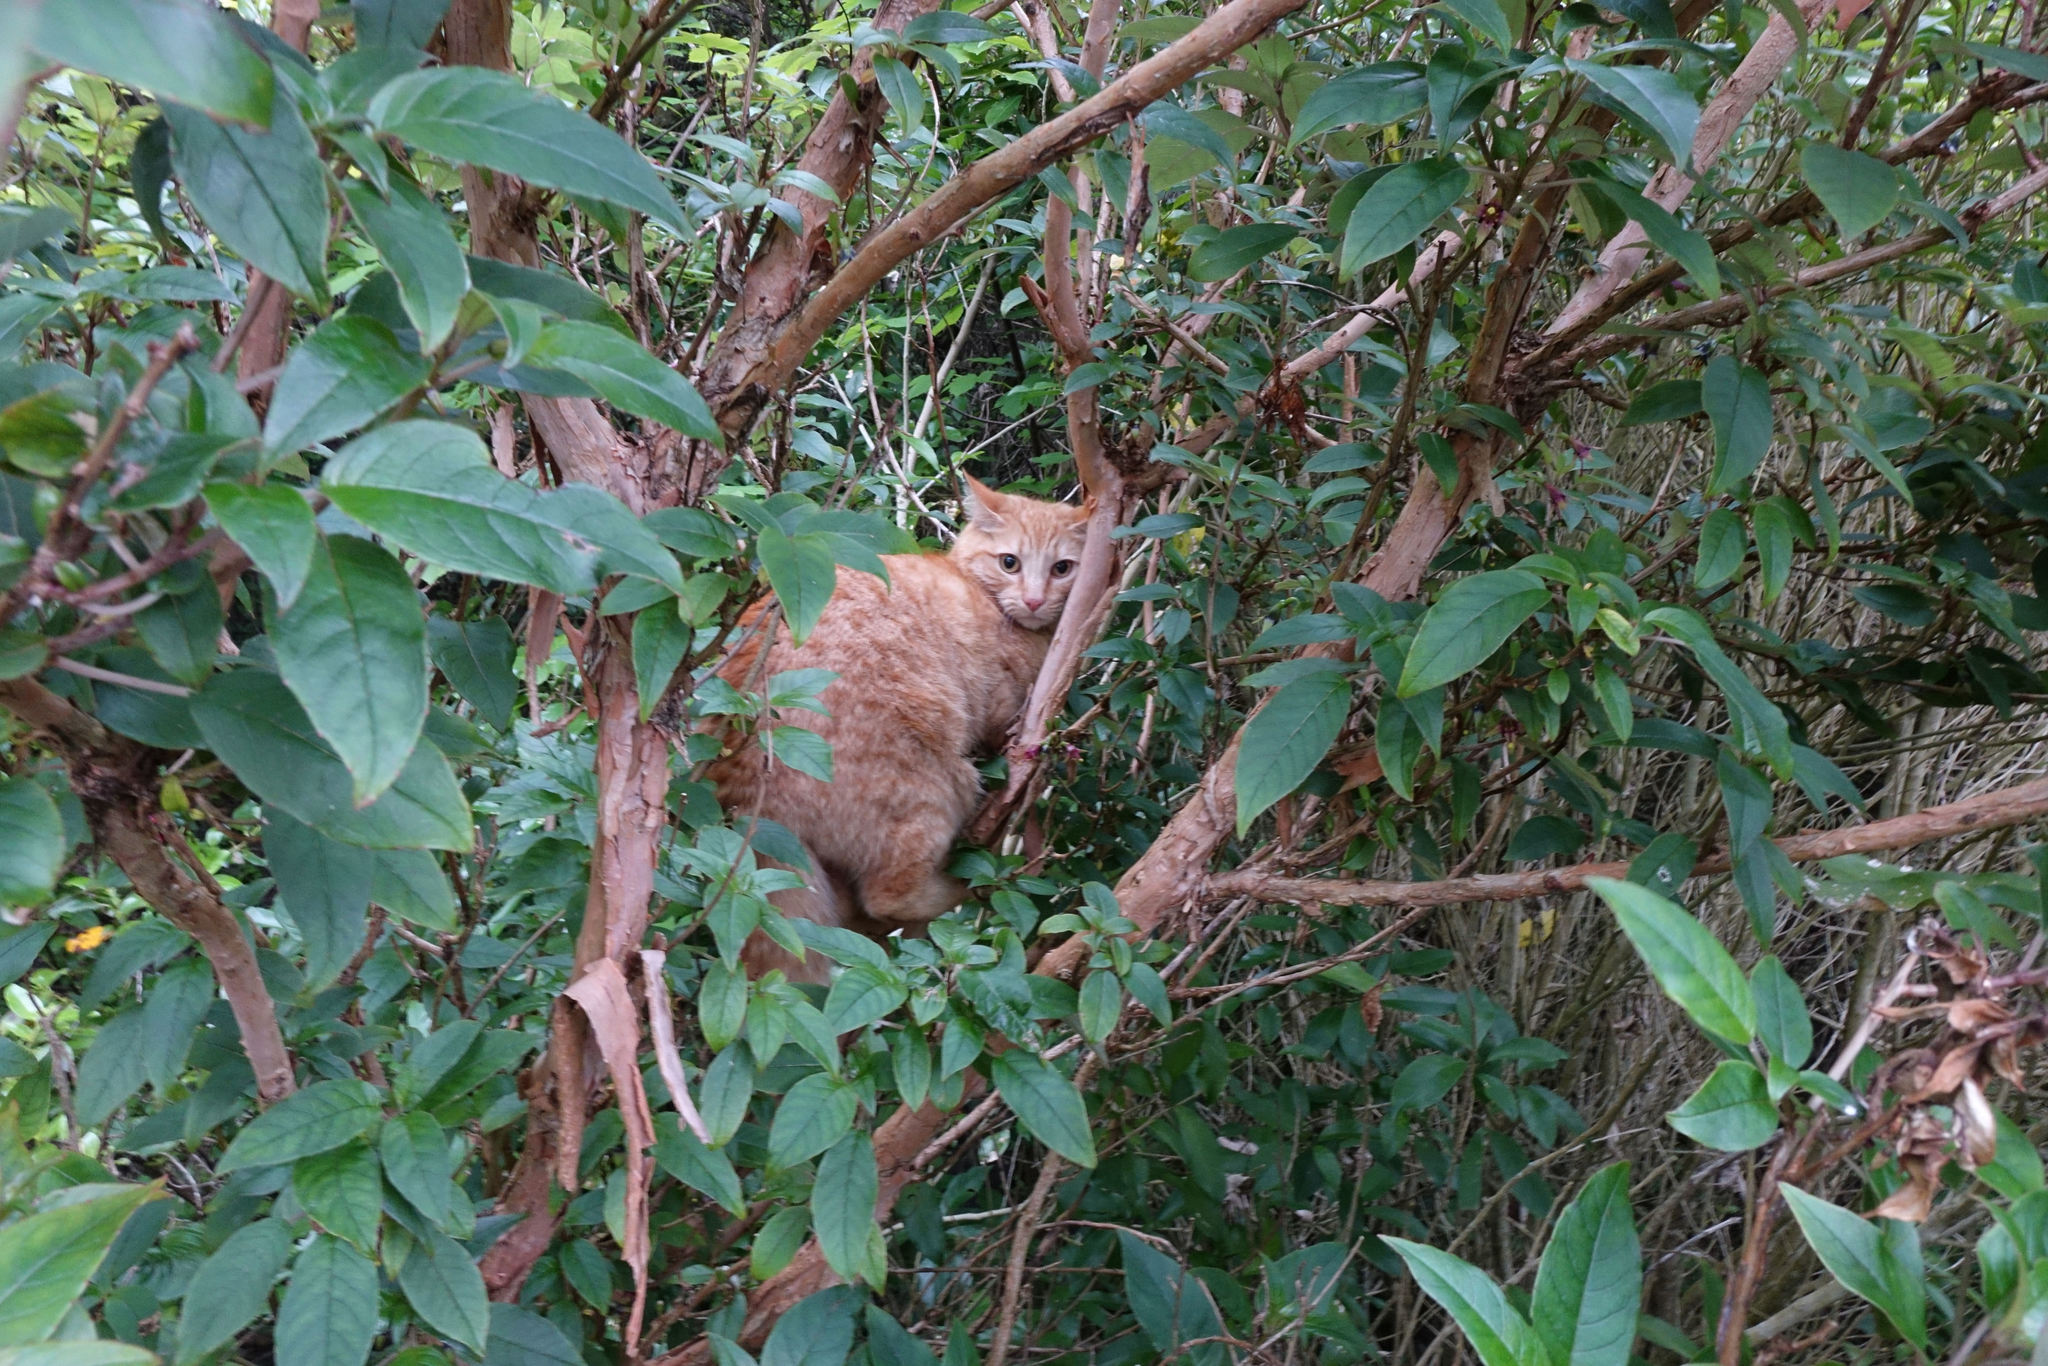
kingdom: Animalia
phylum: Chordata
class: Mammalia
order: Carnivora
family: Felidae
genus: Felis
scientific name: Felis catus
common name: Domestic cat
